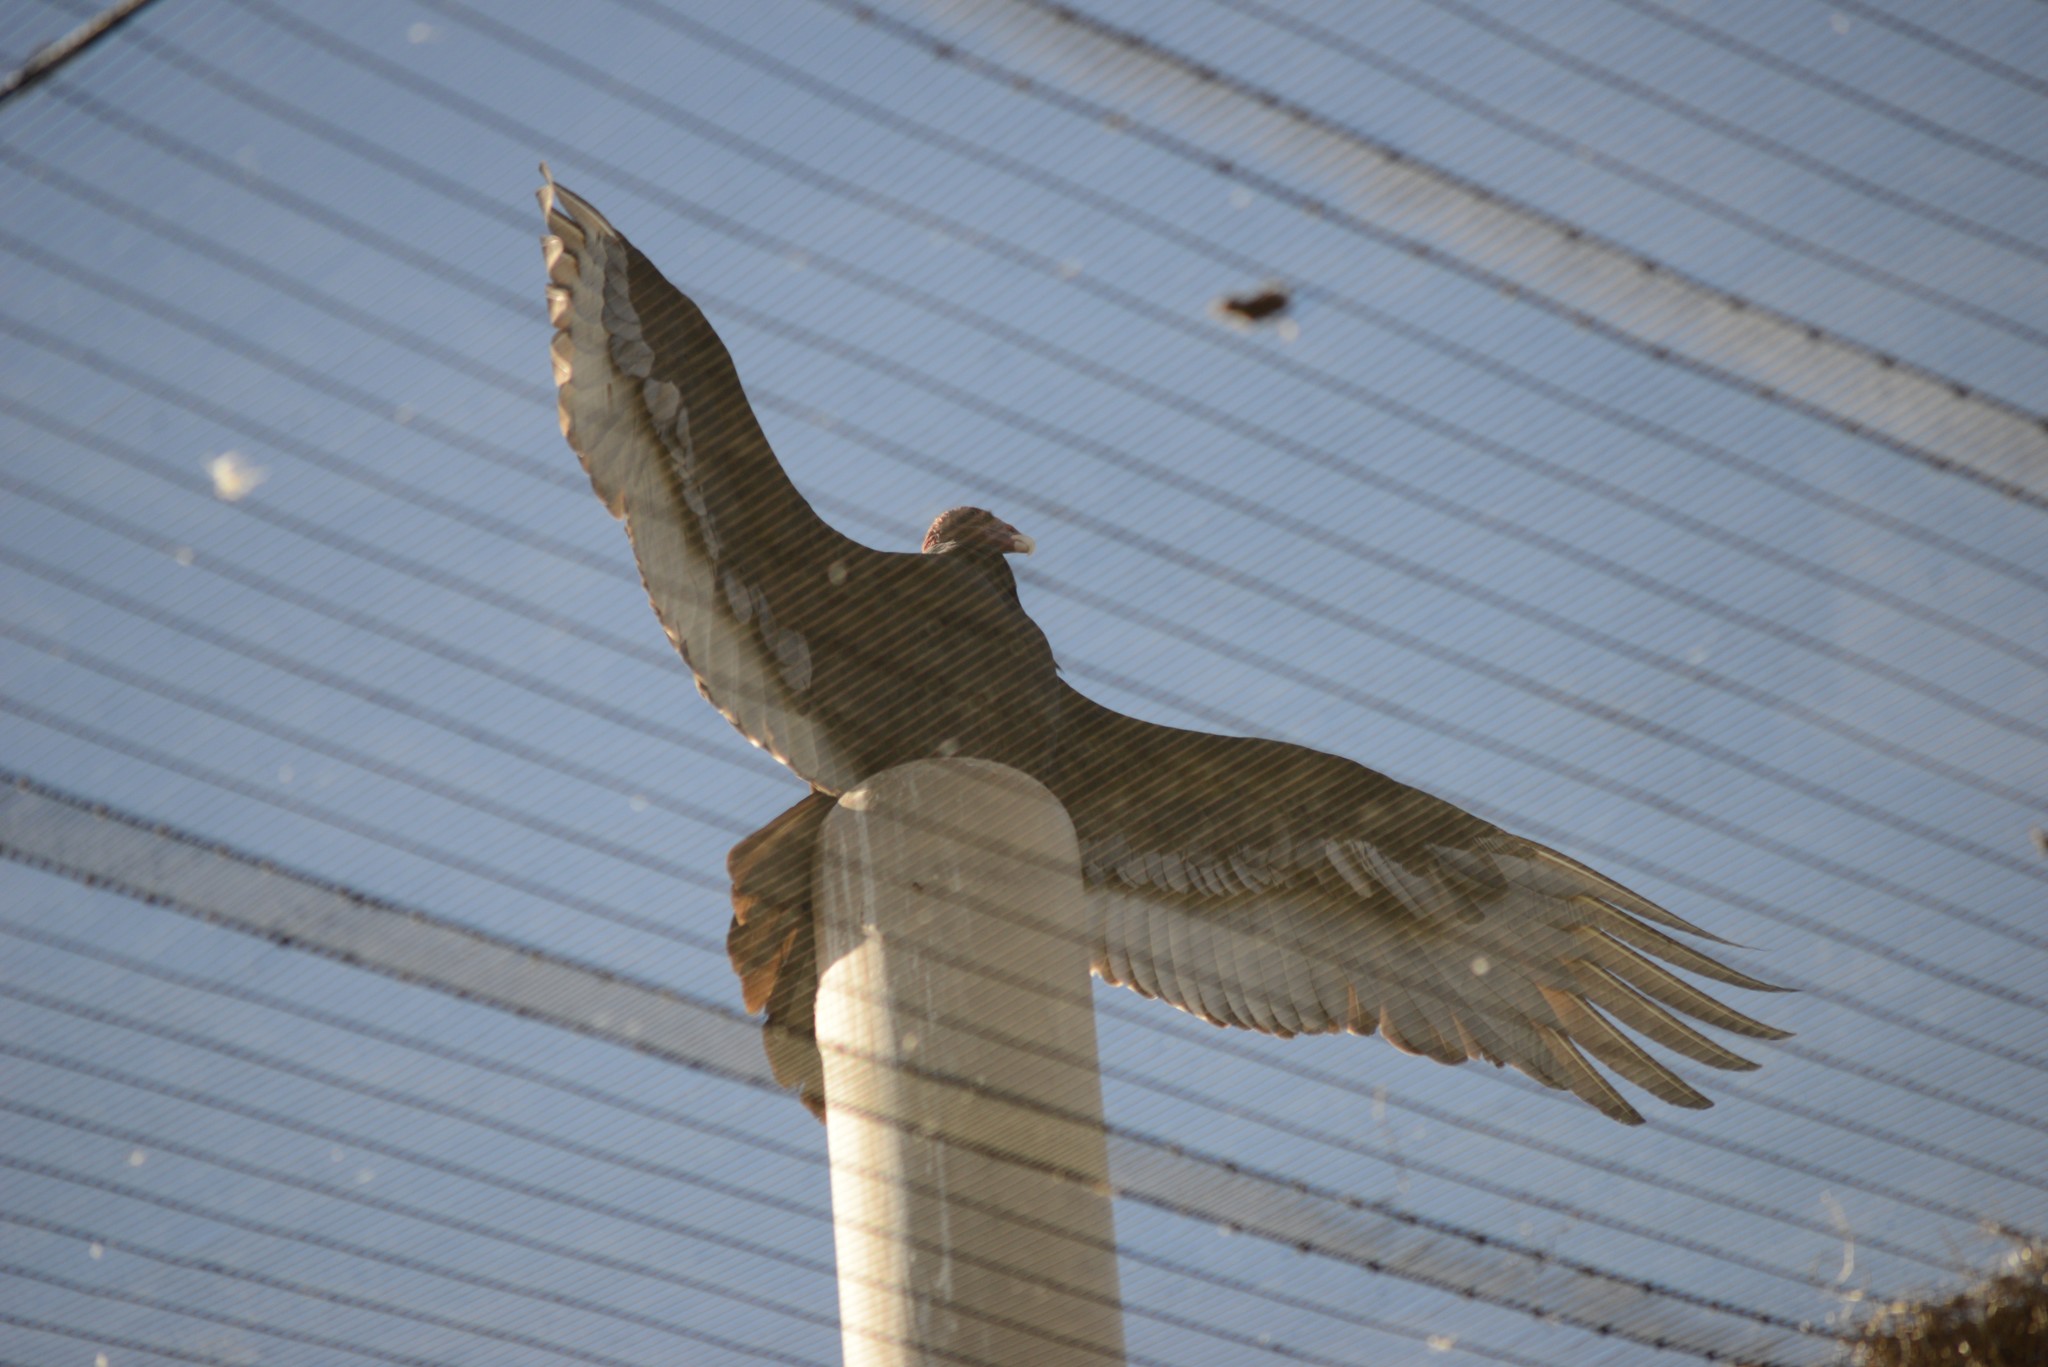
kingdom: Animalia
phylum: Chordata
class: Aves
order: Accipitriformes
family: Cathartidae
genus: Cathartes
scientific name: Cathartes aura
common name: Turkey vulture
